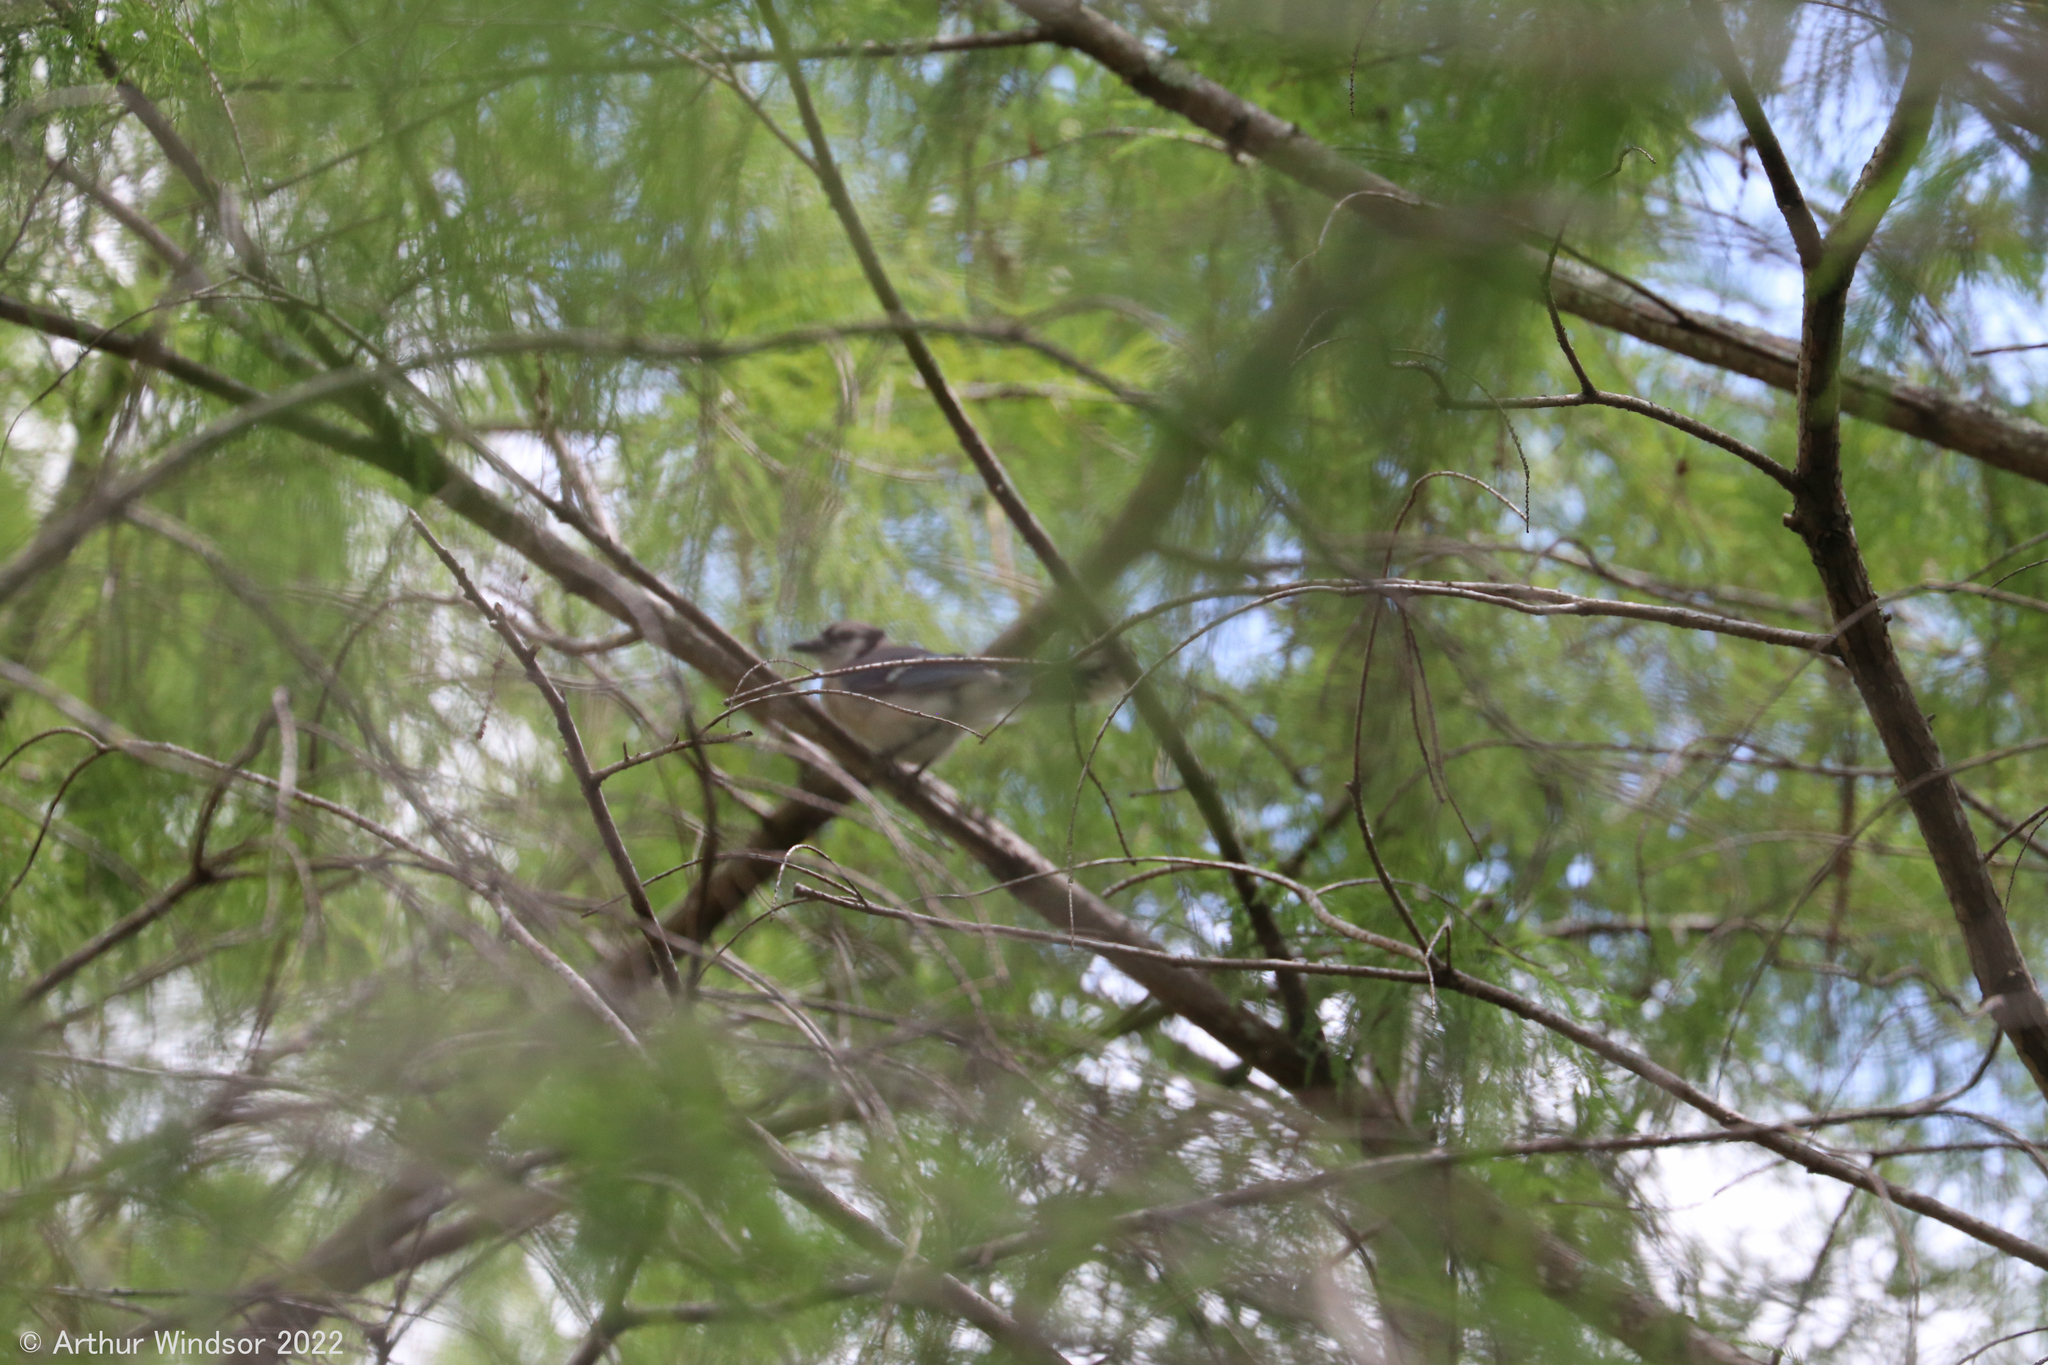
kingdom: Animalia
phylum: Chordata
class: Aves
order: Passeriformes
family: Corvidae
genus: Cyanocitta
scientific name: Cyanocitta cristata
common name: Blue jay
